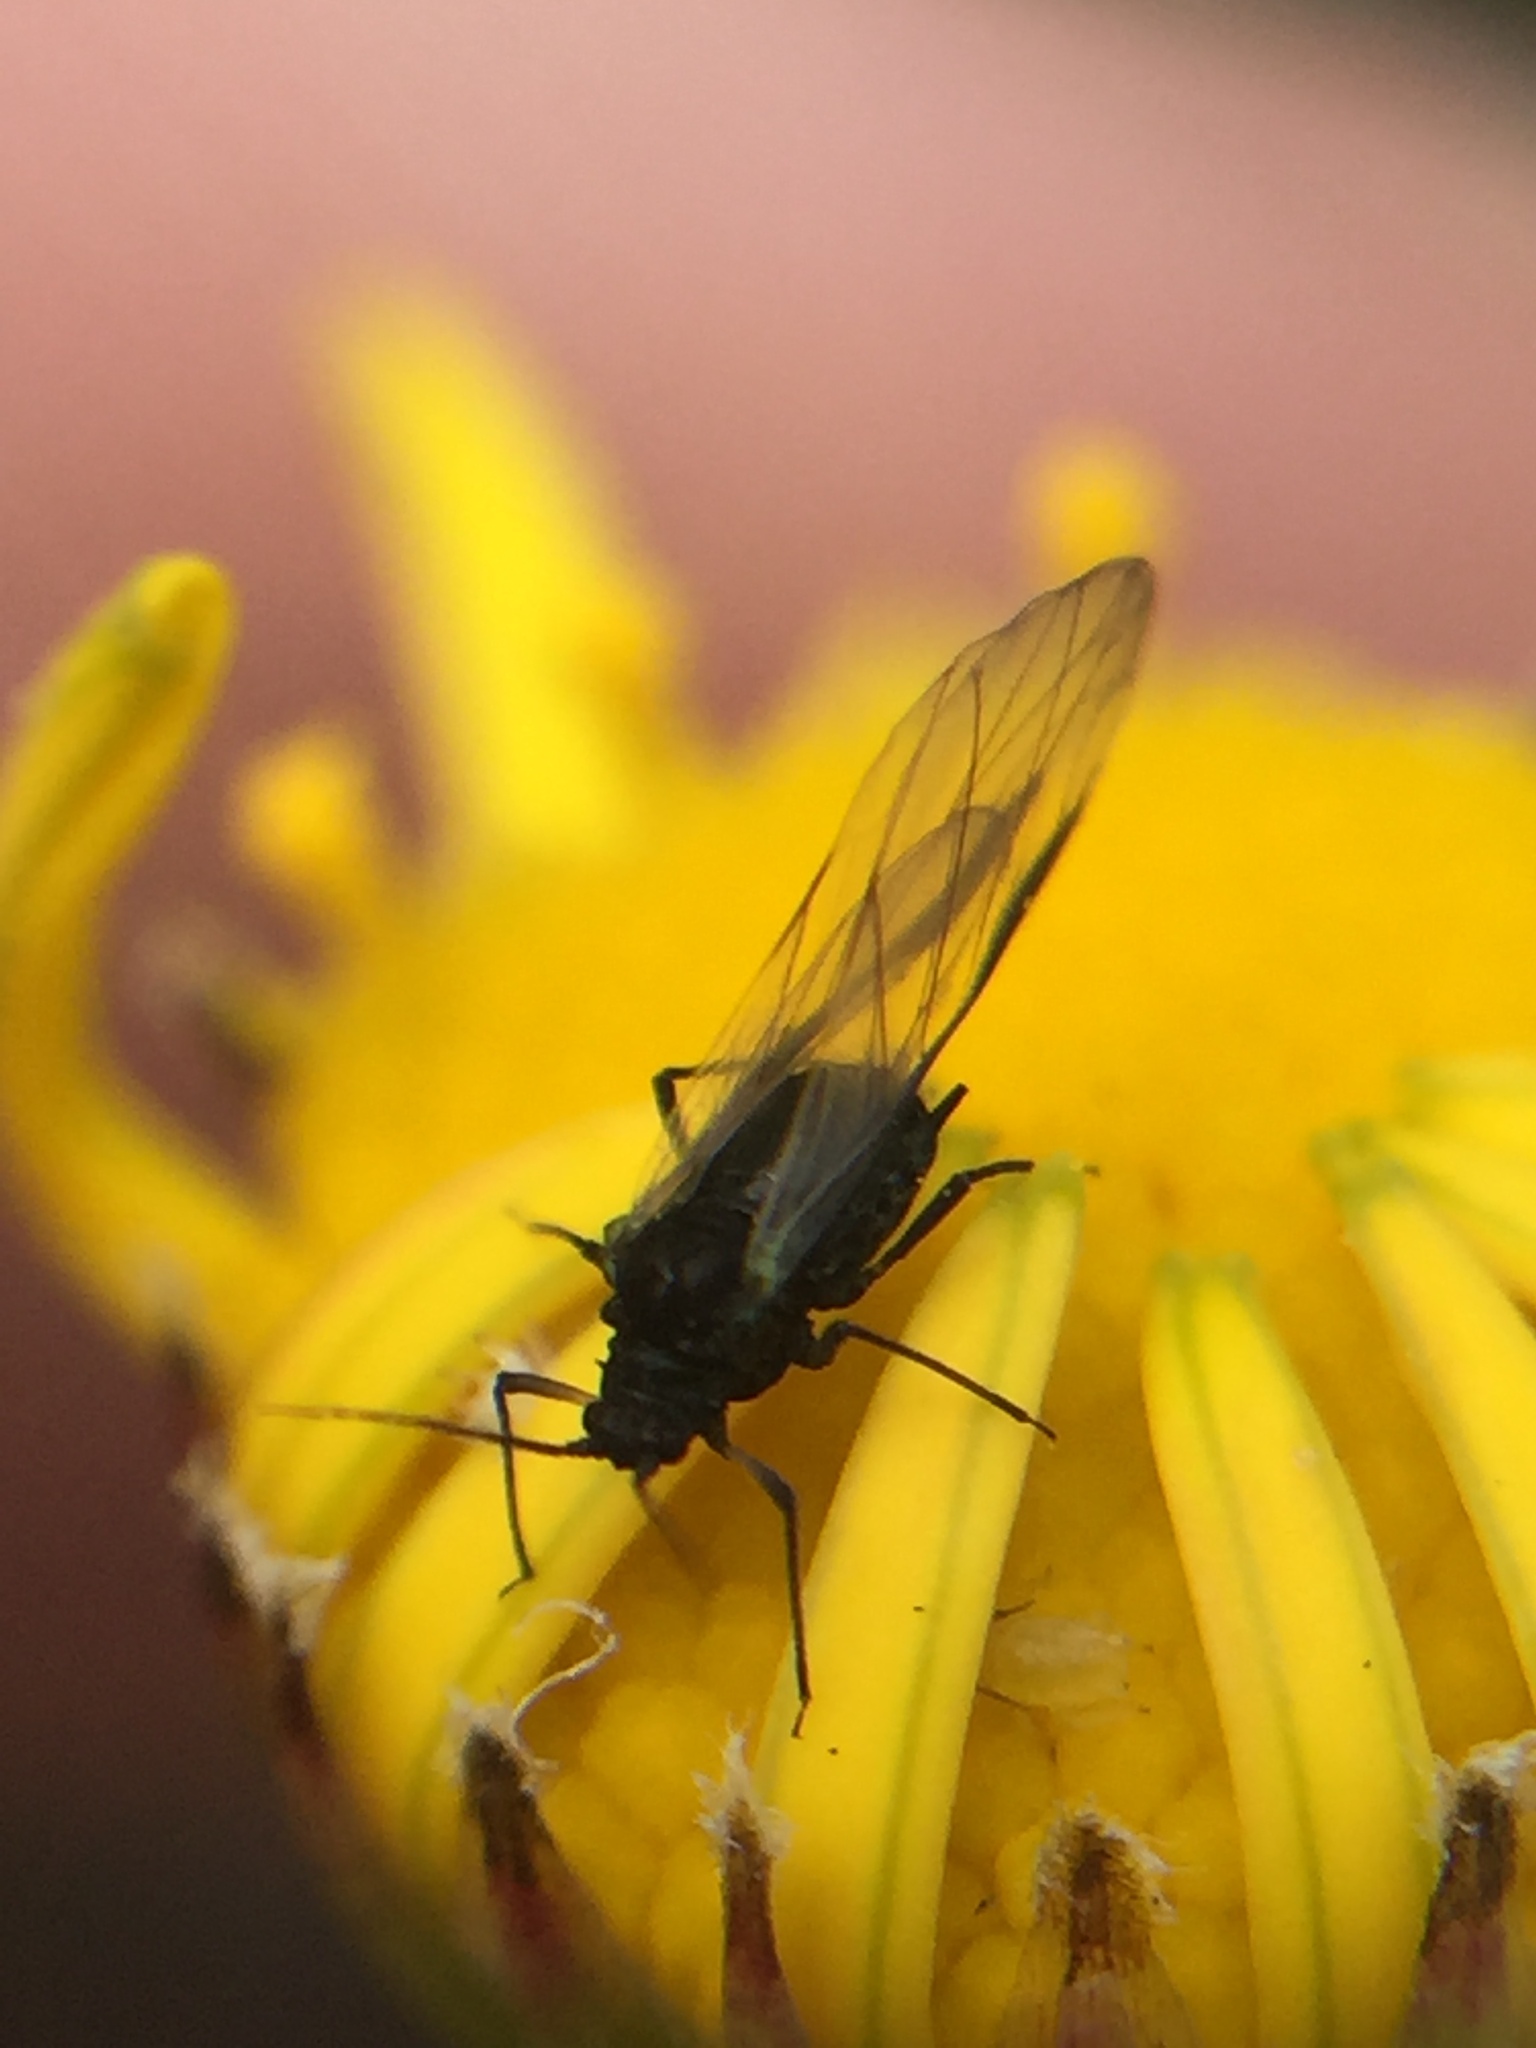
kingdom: Animalia
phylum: Arthropoda
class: Insecta
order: Hemiptera
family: Aphididae
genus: Aphis
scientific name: Aphis lugentis
